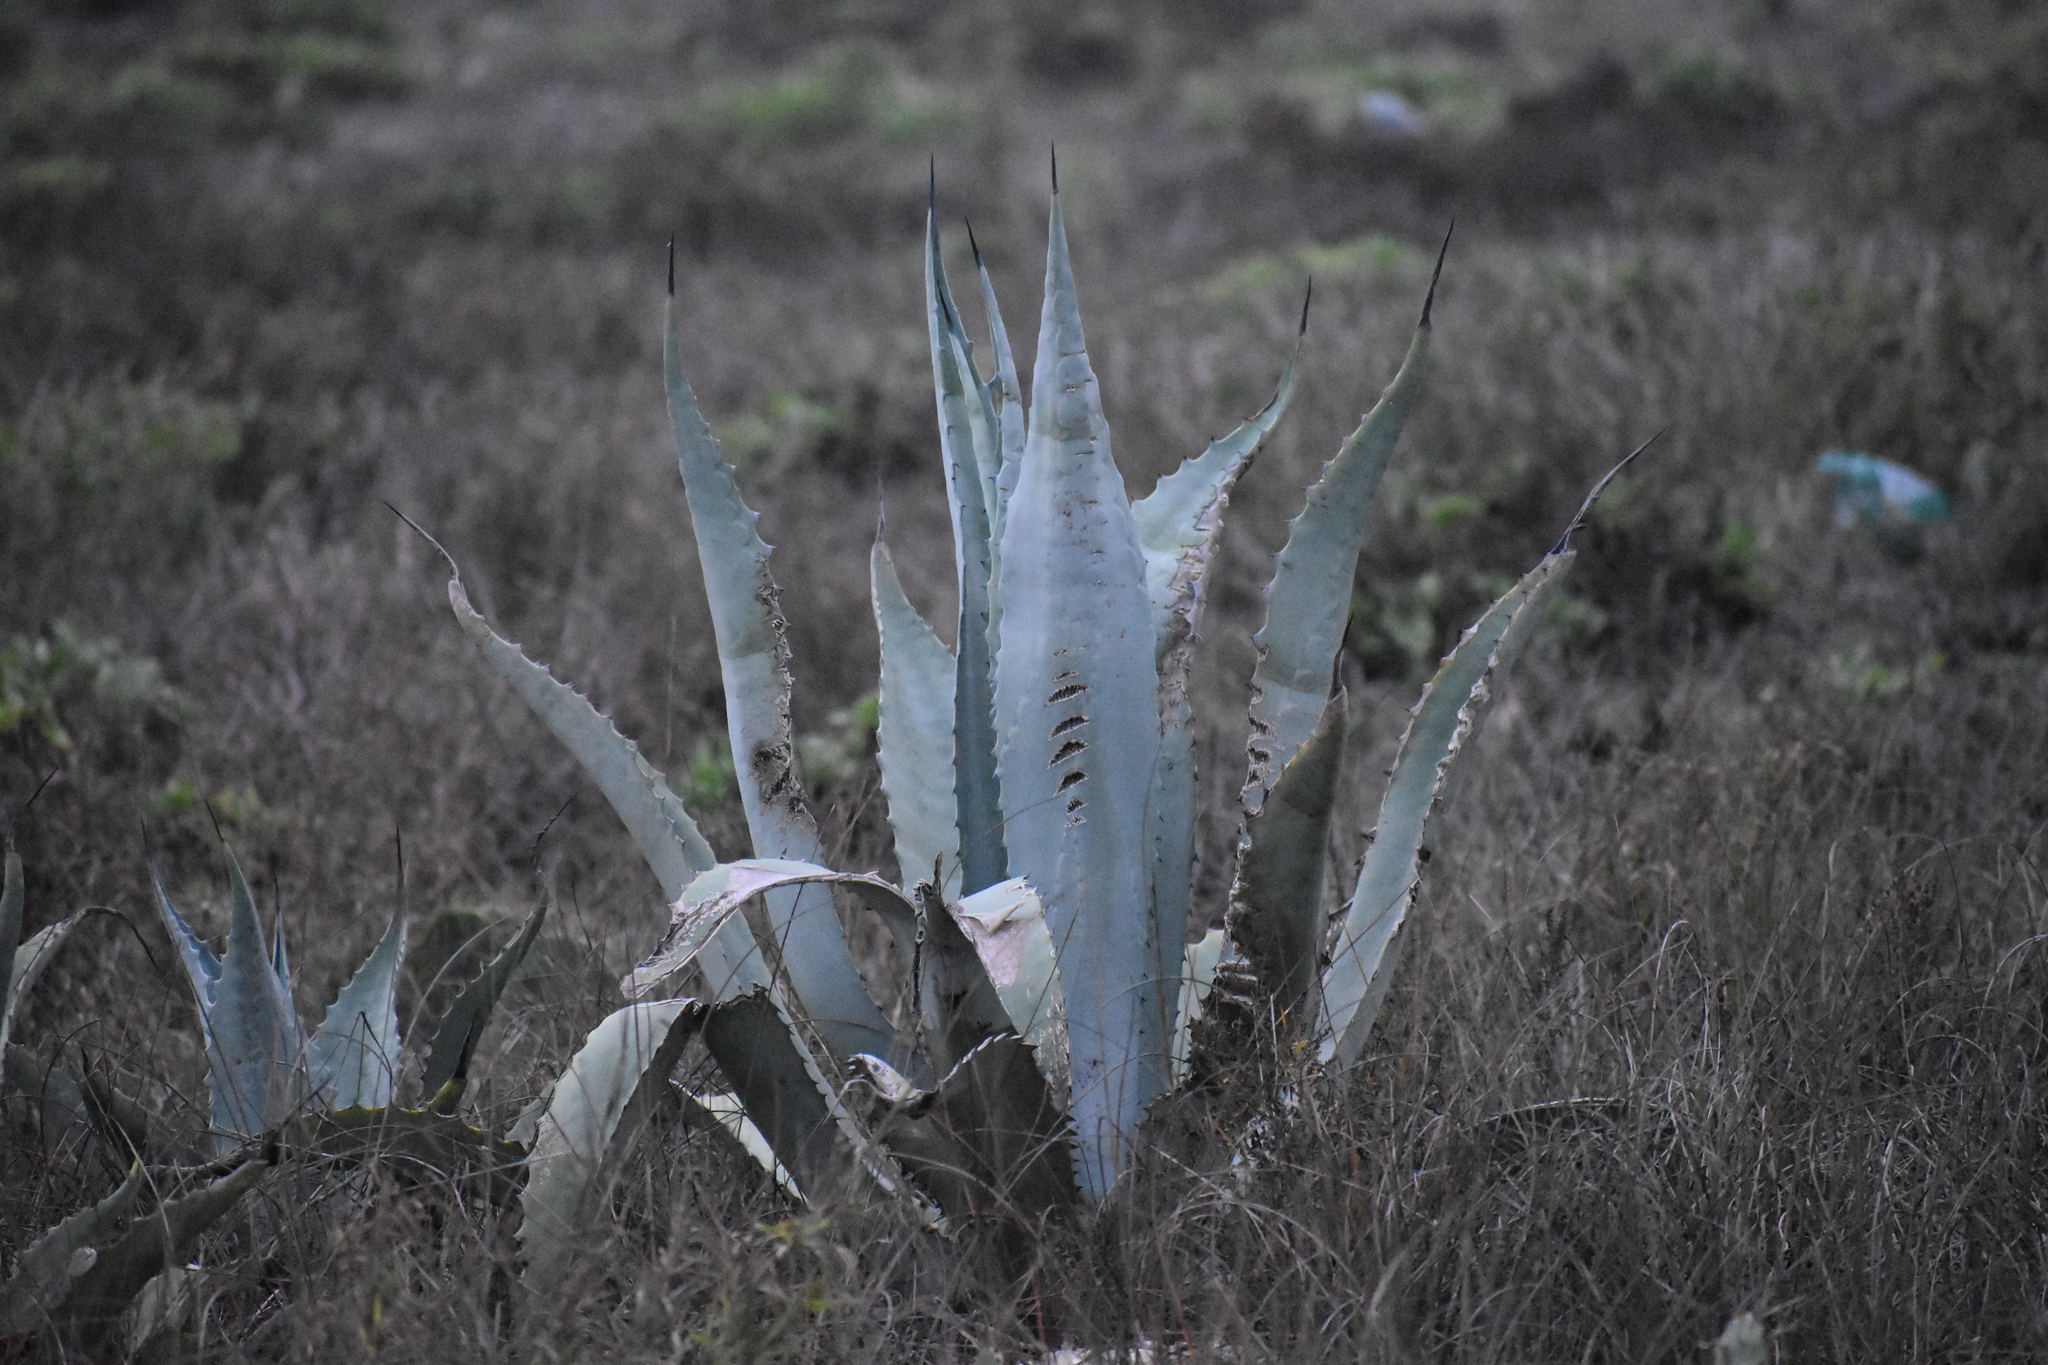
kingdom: Plantae
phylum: Tracheophyta
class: Liliopsida
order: Asparagales
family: Asparagaceae
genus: Agave
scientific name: Agave americana
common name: Centuryplant
